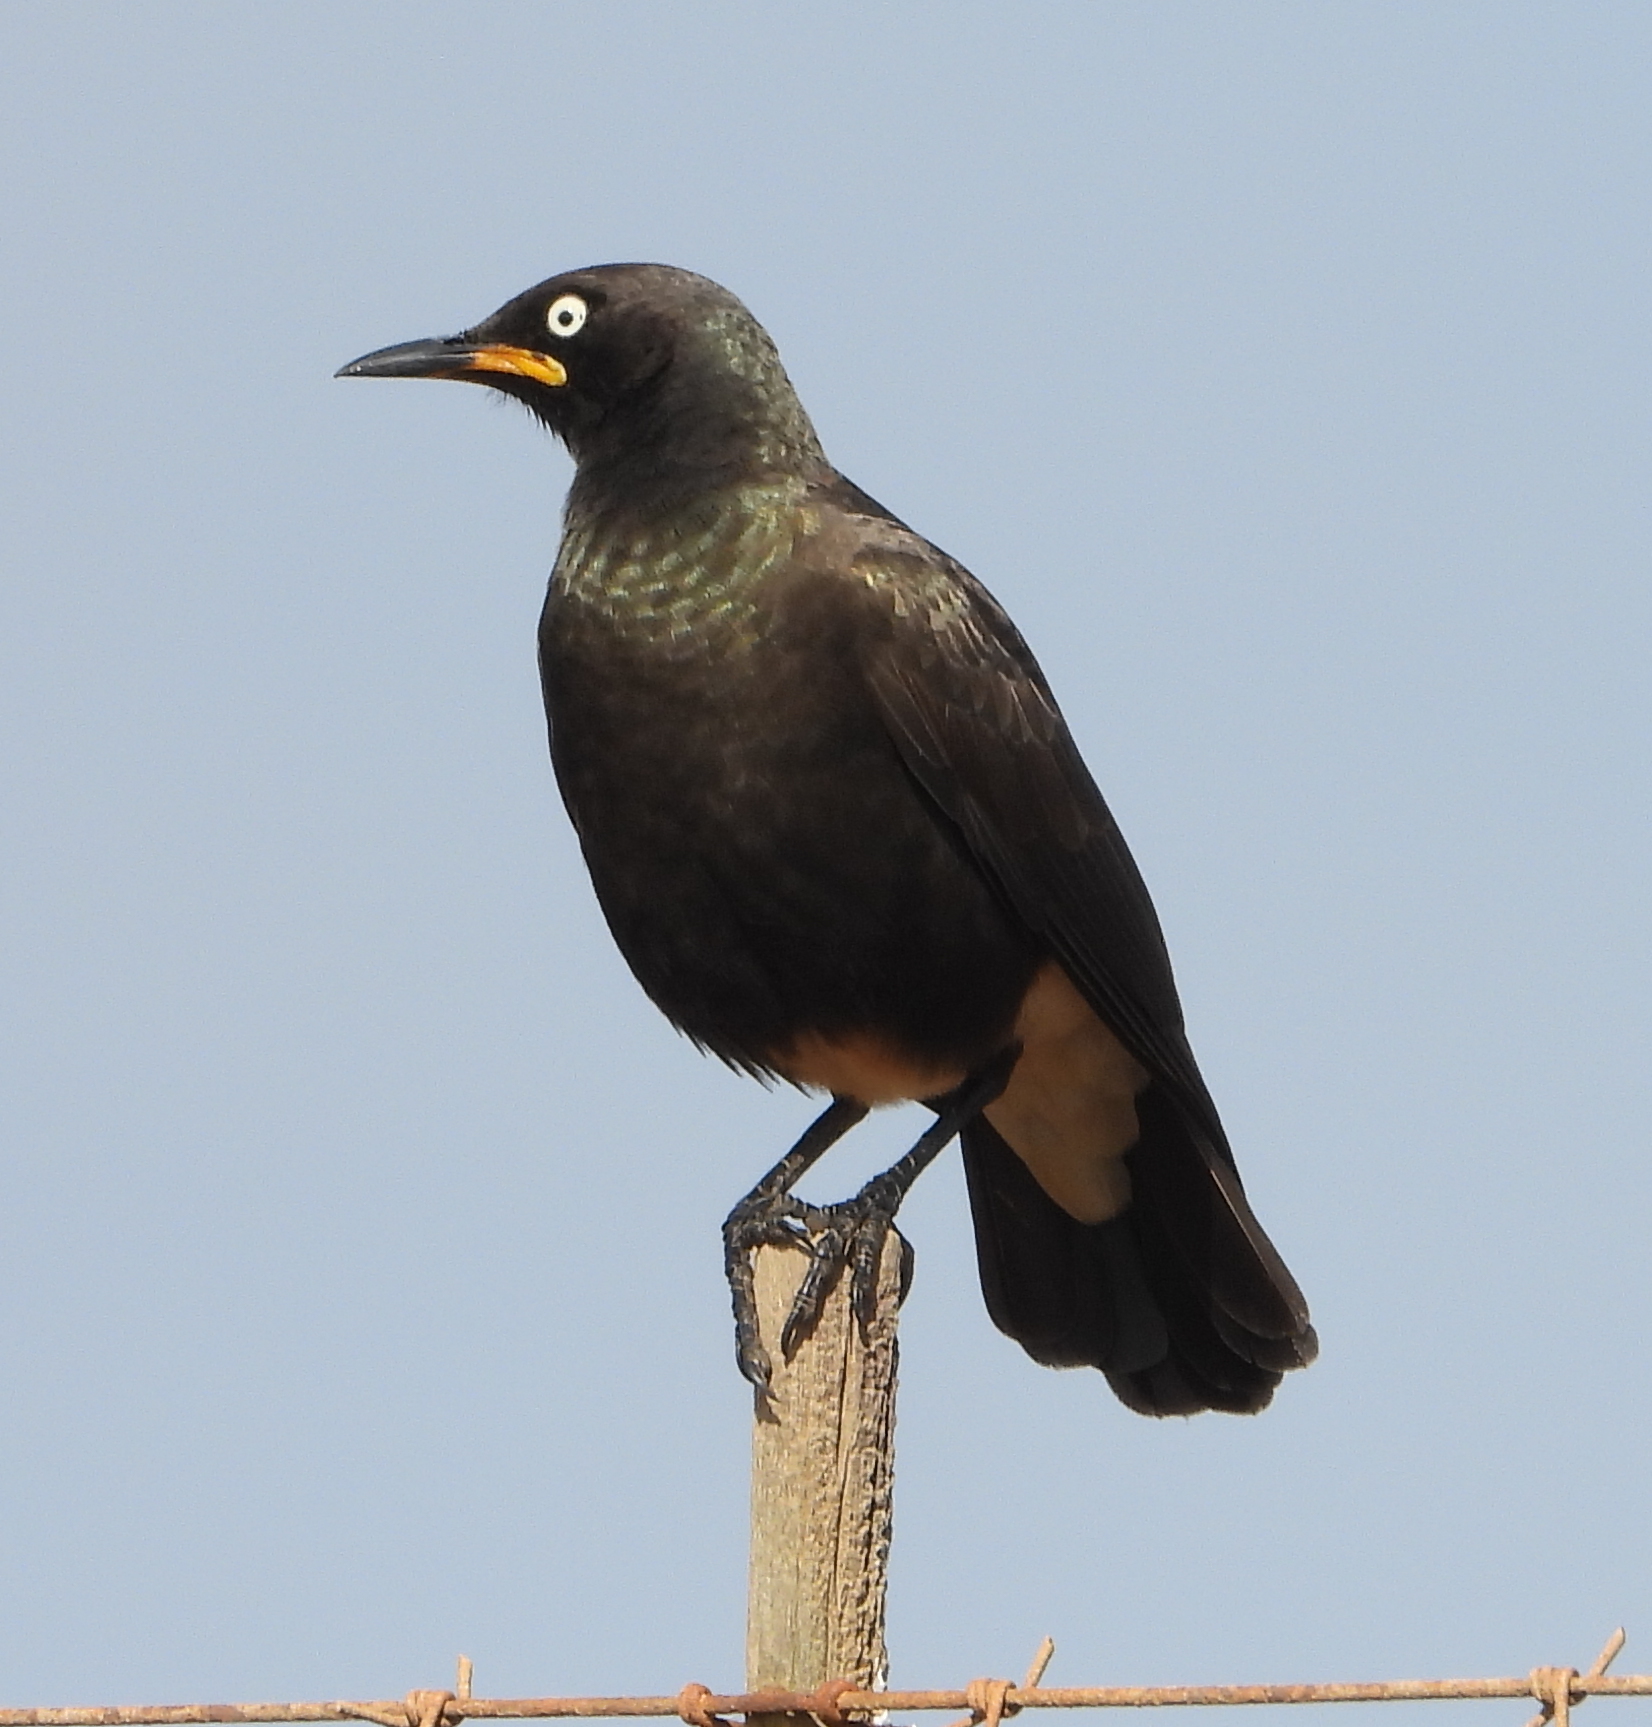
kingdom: Animalia
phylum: Chordata
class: Aves
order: Passeriformes
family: Sturnidae
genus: Lamprotornis
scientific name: Lamprotornis bicolor
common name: Pied starling
